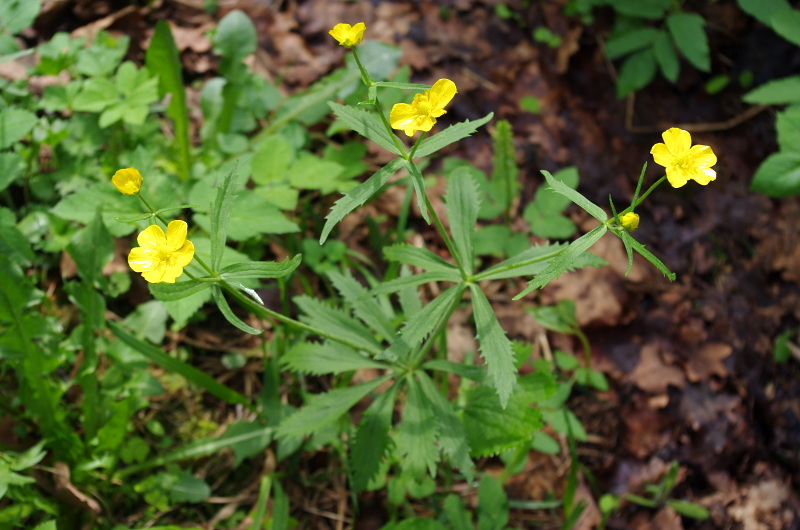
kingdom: Plantae
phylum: Tracheophyta
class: Magnoliopsida
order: Ranunculales
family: Ranunculaceae
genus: Ranunculus
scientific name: Ranunculus cassubicus
